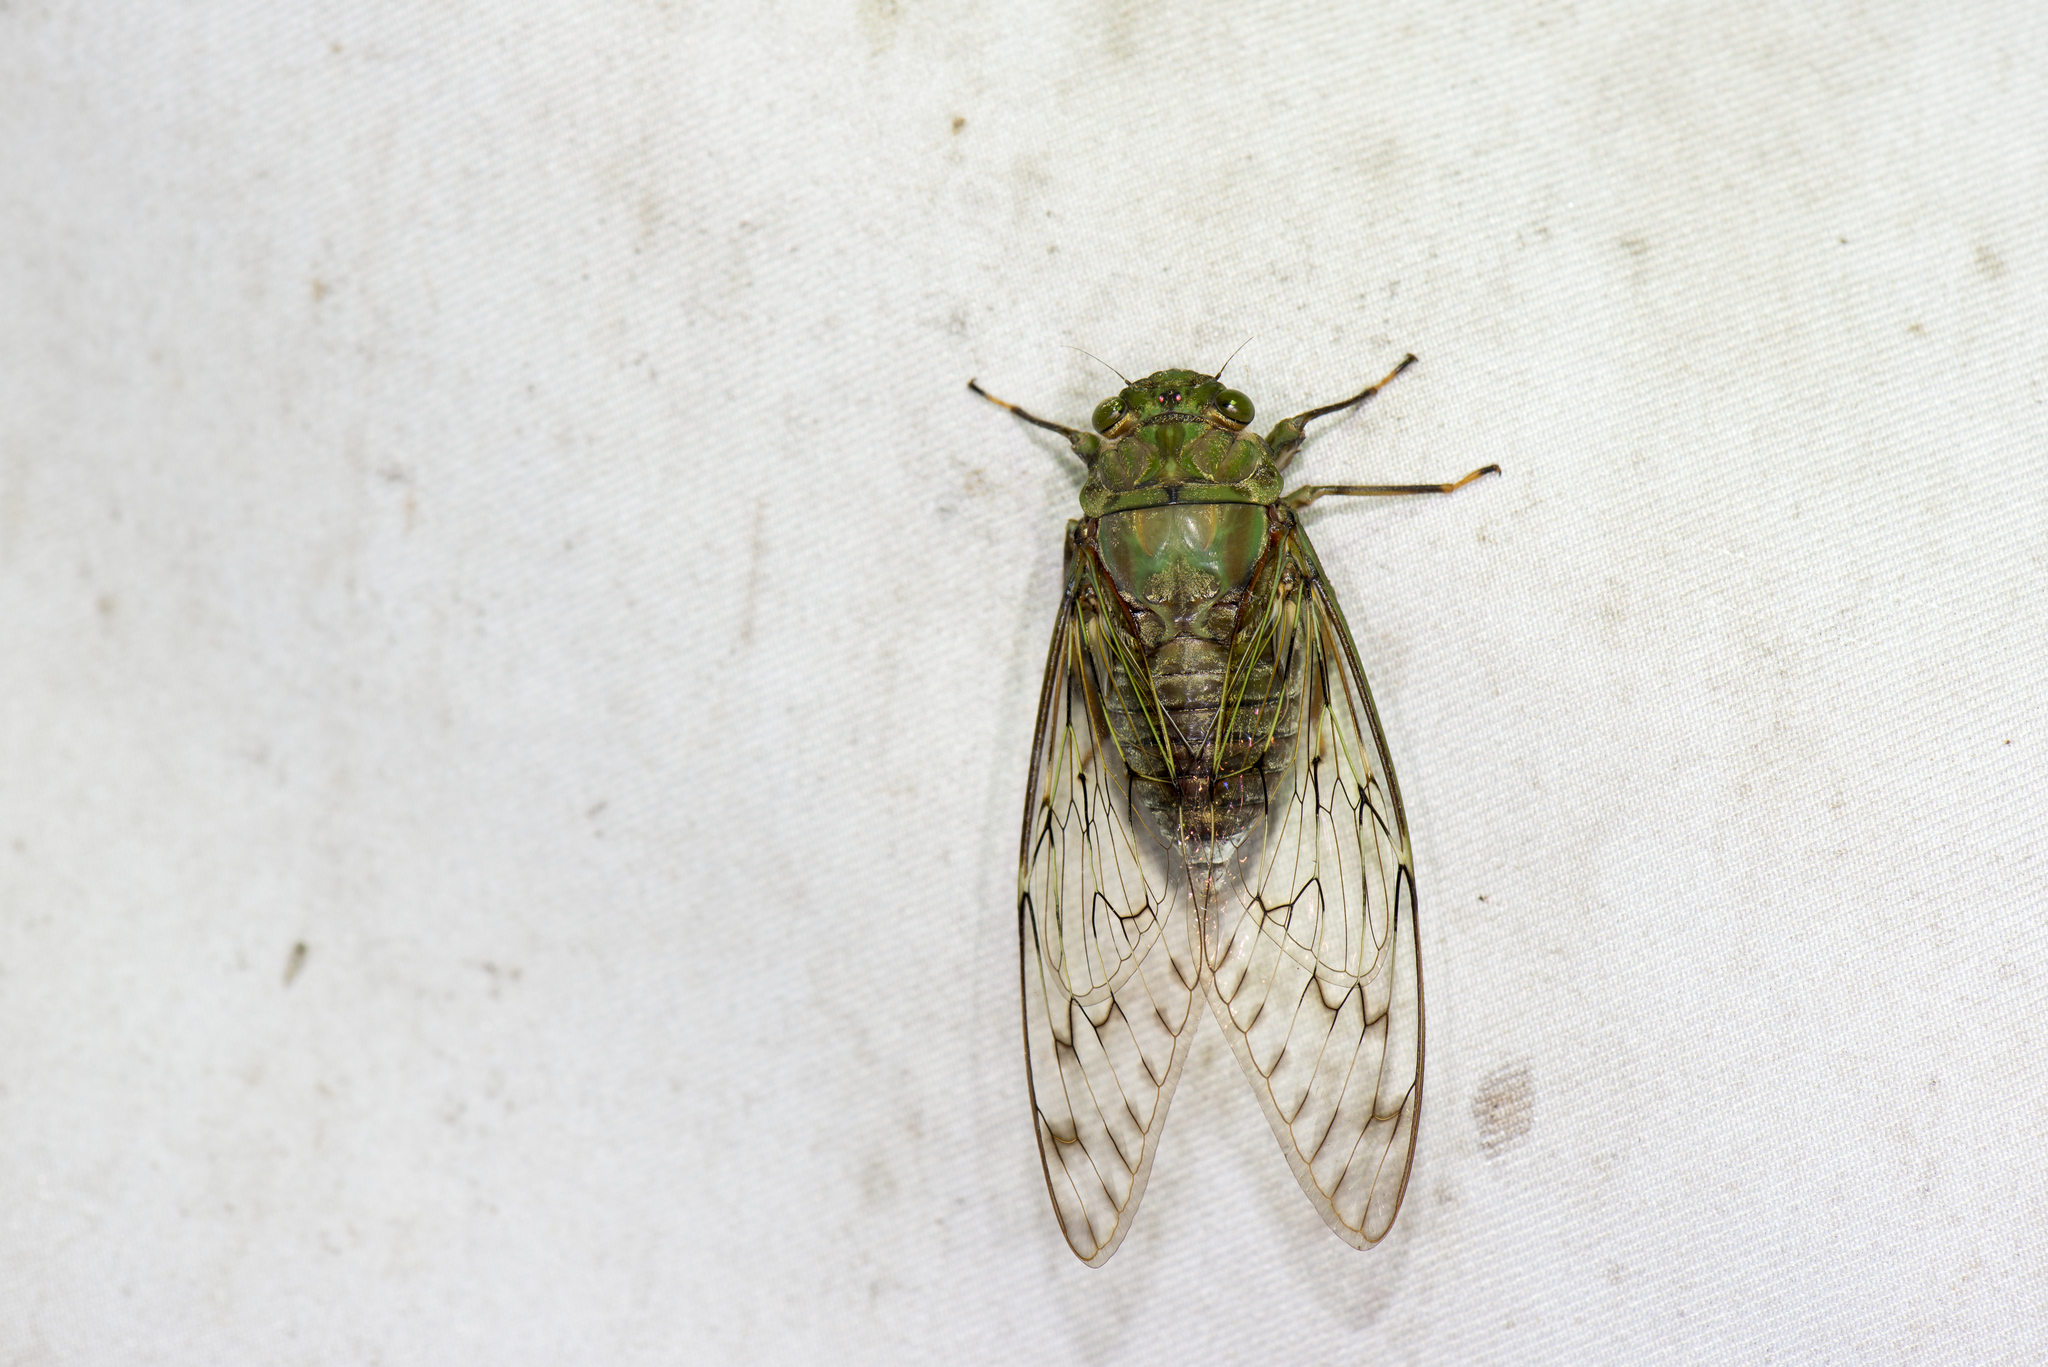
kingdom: Animalia
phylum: Arthropoda
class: Insecta
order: Hemiptera
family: Cicadidae
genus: Pomponia
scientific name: Pomponia yayeyamana
